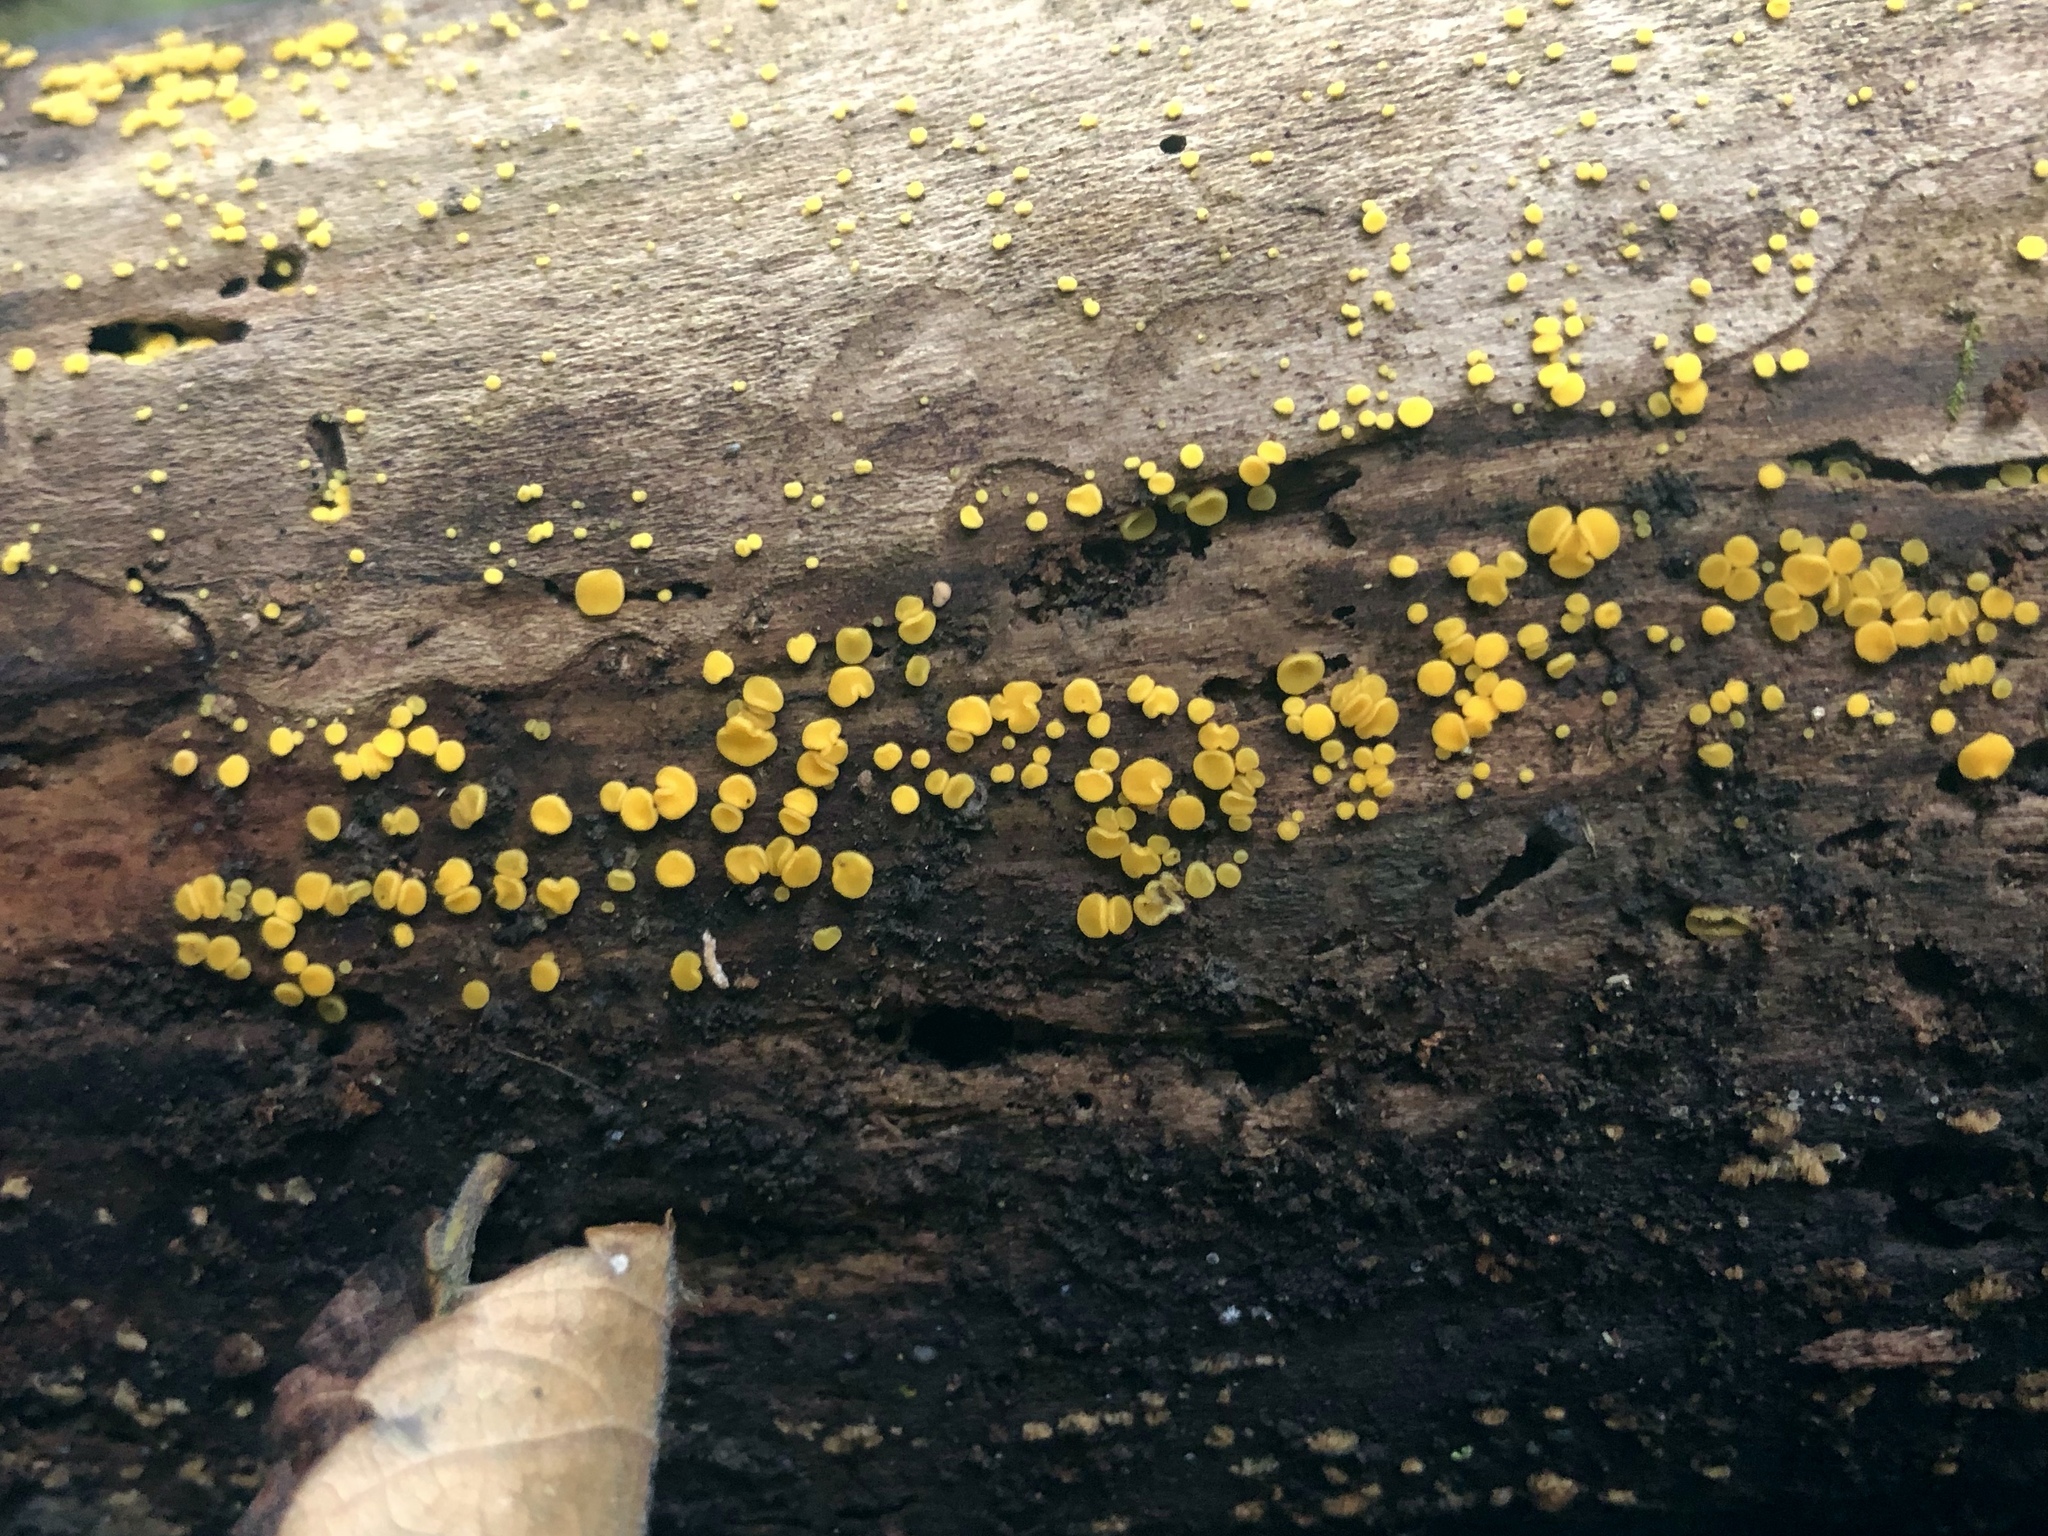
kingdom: Fungi
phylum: Ascomycota
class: Leotiomycetes
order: Helotiales
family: Pezizellaceae
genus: Calycina
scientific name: Calycina citrina
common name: Yellow fairy cups
